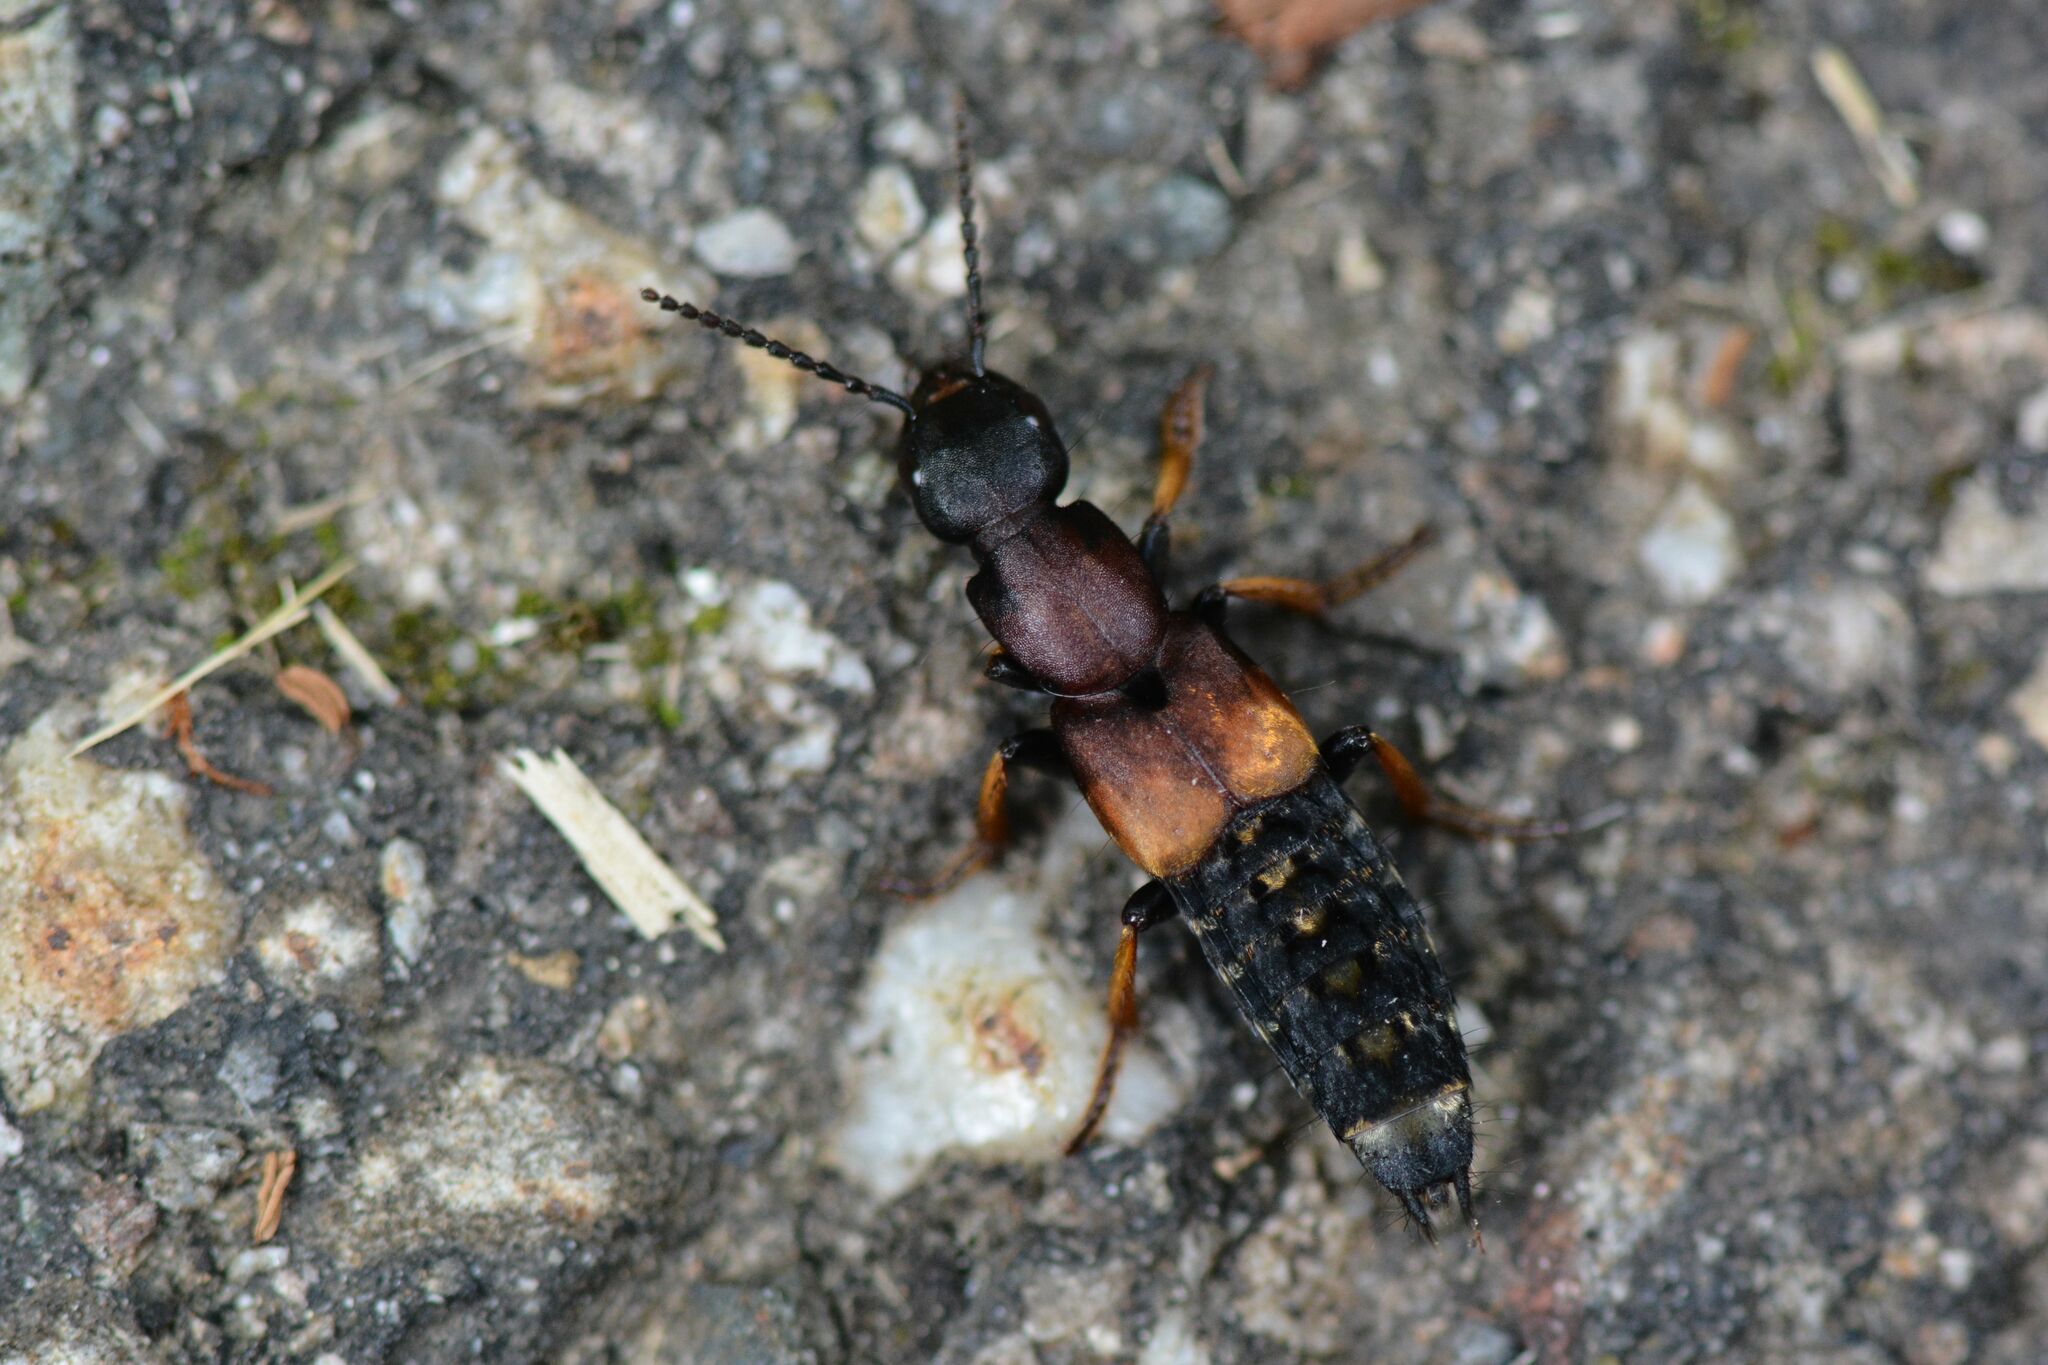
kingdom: Animalia
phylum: Arthropoda
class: Insecta
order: Coleoptera
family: Staphylinidae
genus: Dinothenarus
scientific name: Dinothenarus fossor
